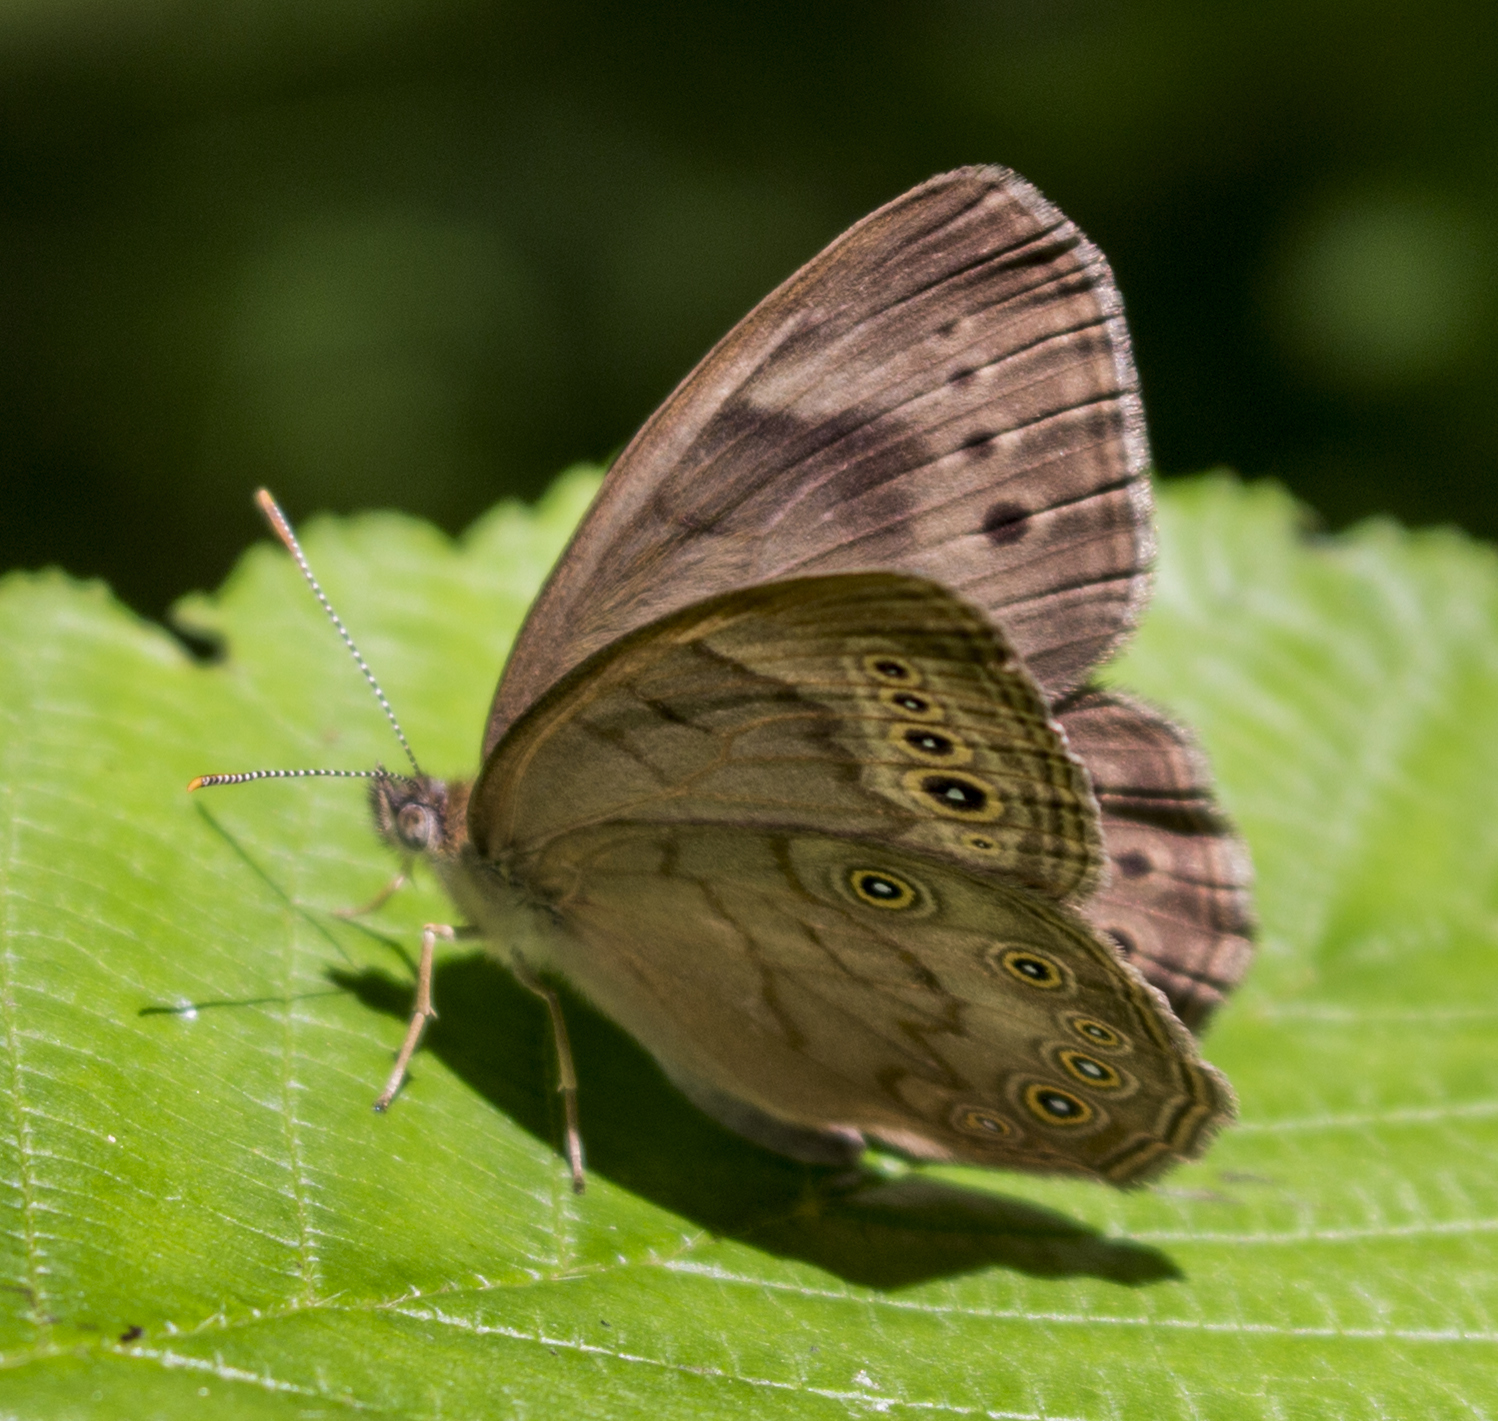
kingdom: Animalia
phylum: Arthropoda
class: Insecta
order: Lepidoptera
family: Nymphalidae
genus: Lethe
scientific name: Lethe eurydice
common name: Eyed brown
